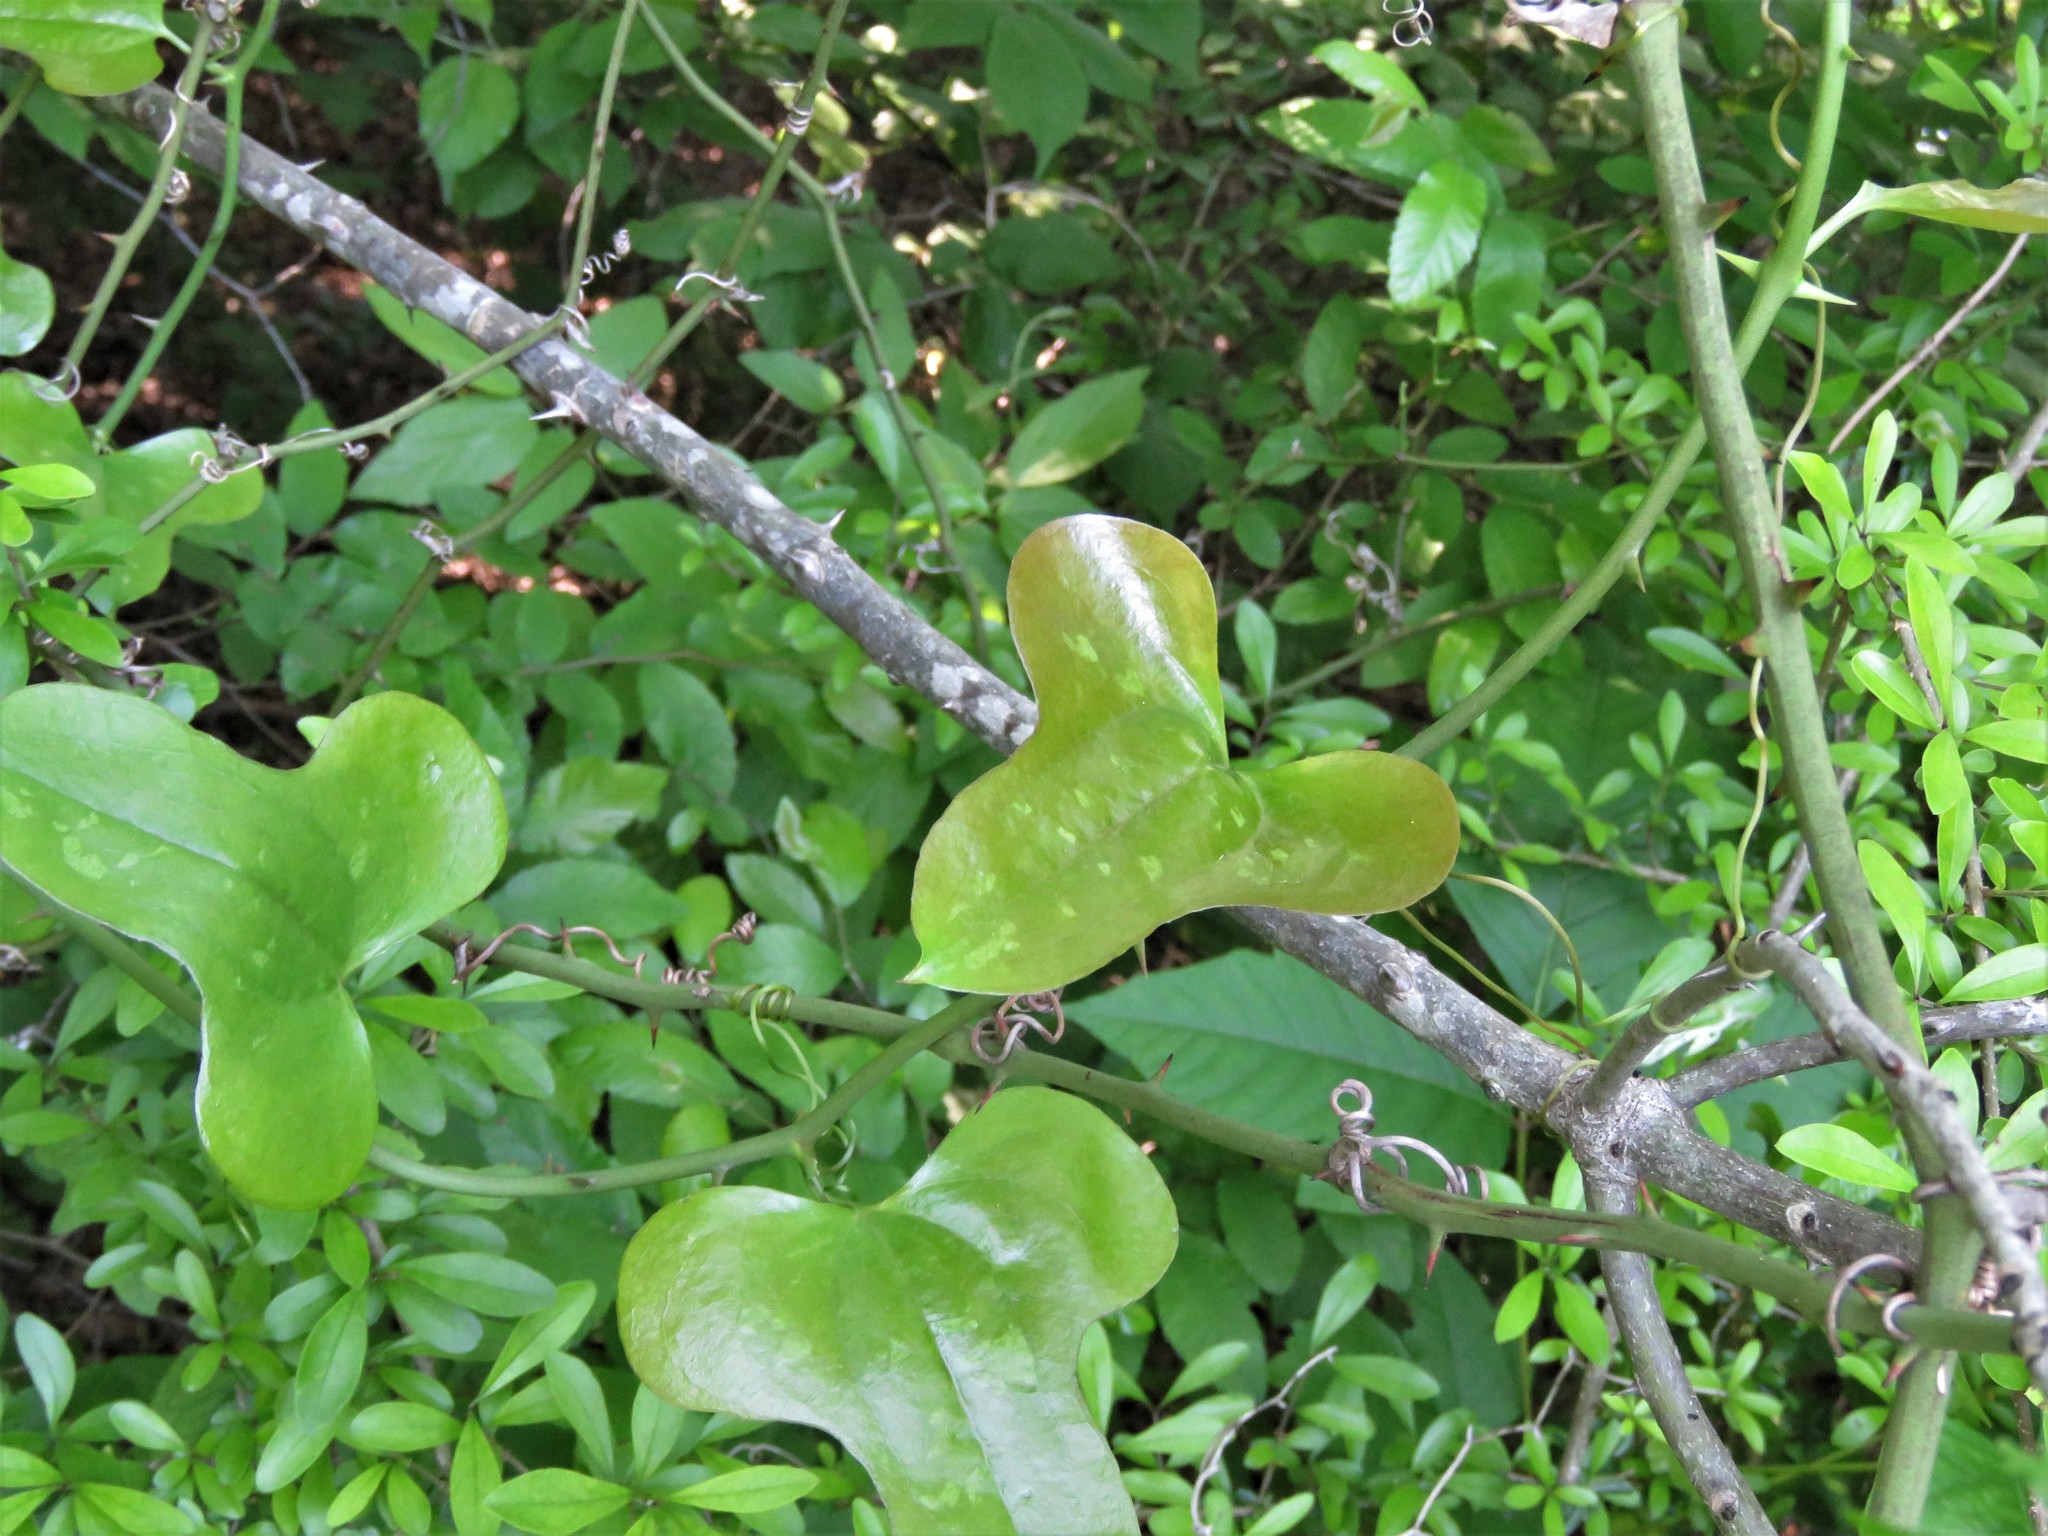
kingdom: Plantae
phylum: Tracheophyta
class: Liliopsida
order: Liliales
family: Smilacaceae
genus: Smilax
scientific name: Smilax bona-nox
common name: Catbrier
